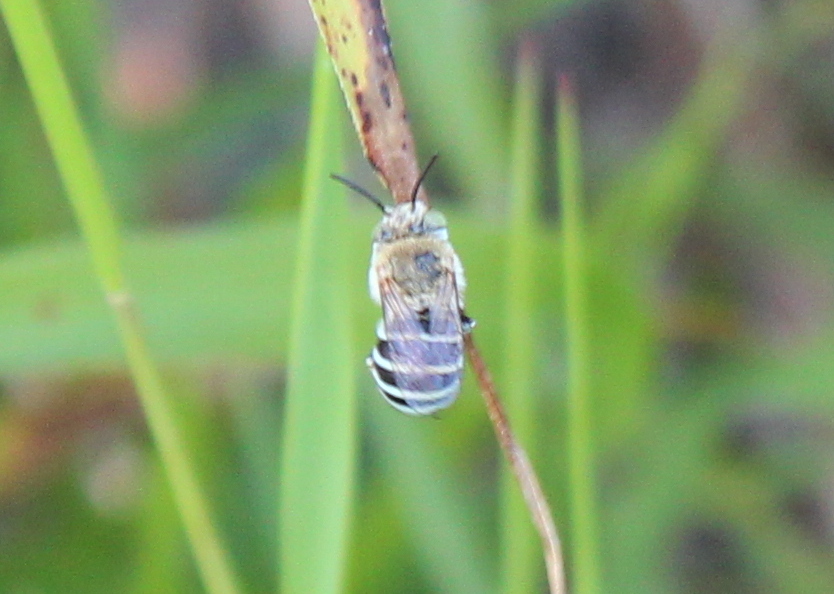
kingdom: Animalia
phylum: Arthropoda
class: Insecta
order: Hymenoptera
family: Apidae
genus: Amegilla
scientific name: Amegilla pulchra
